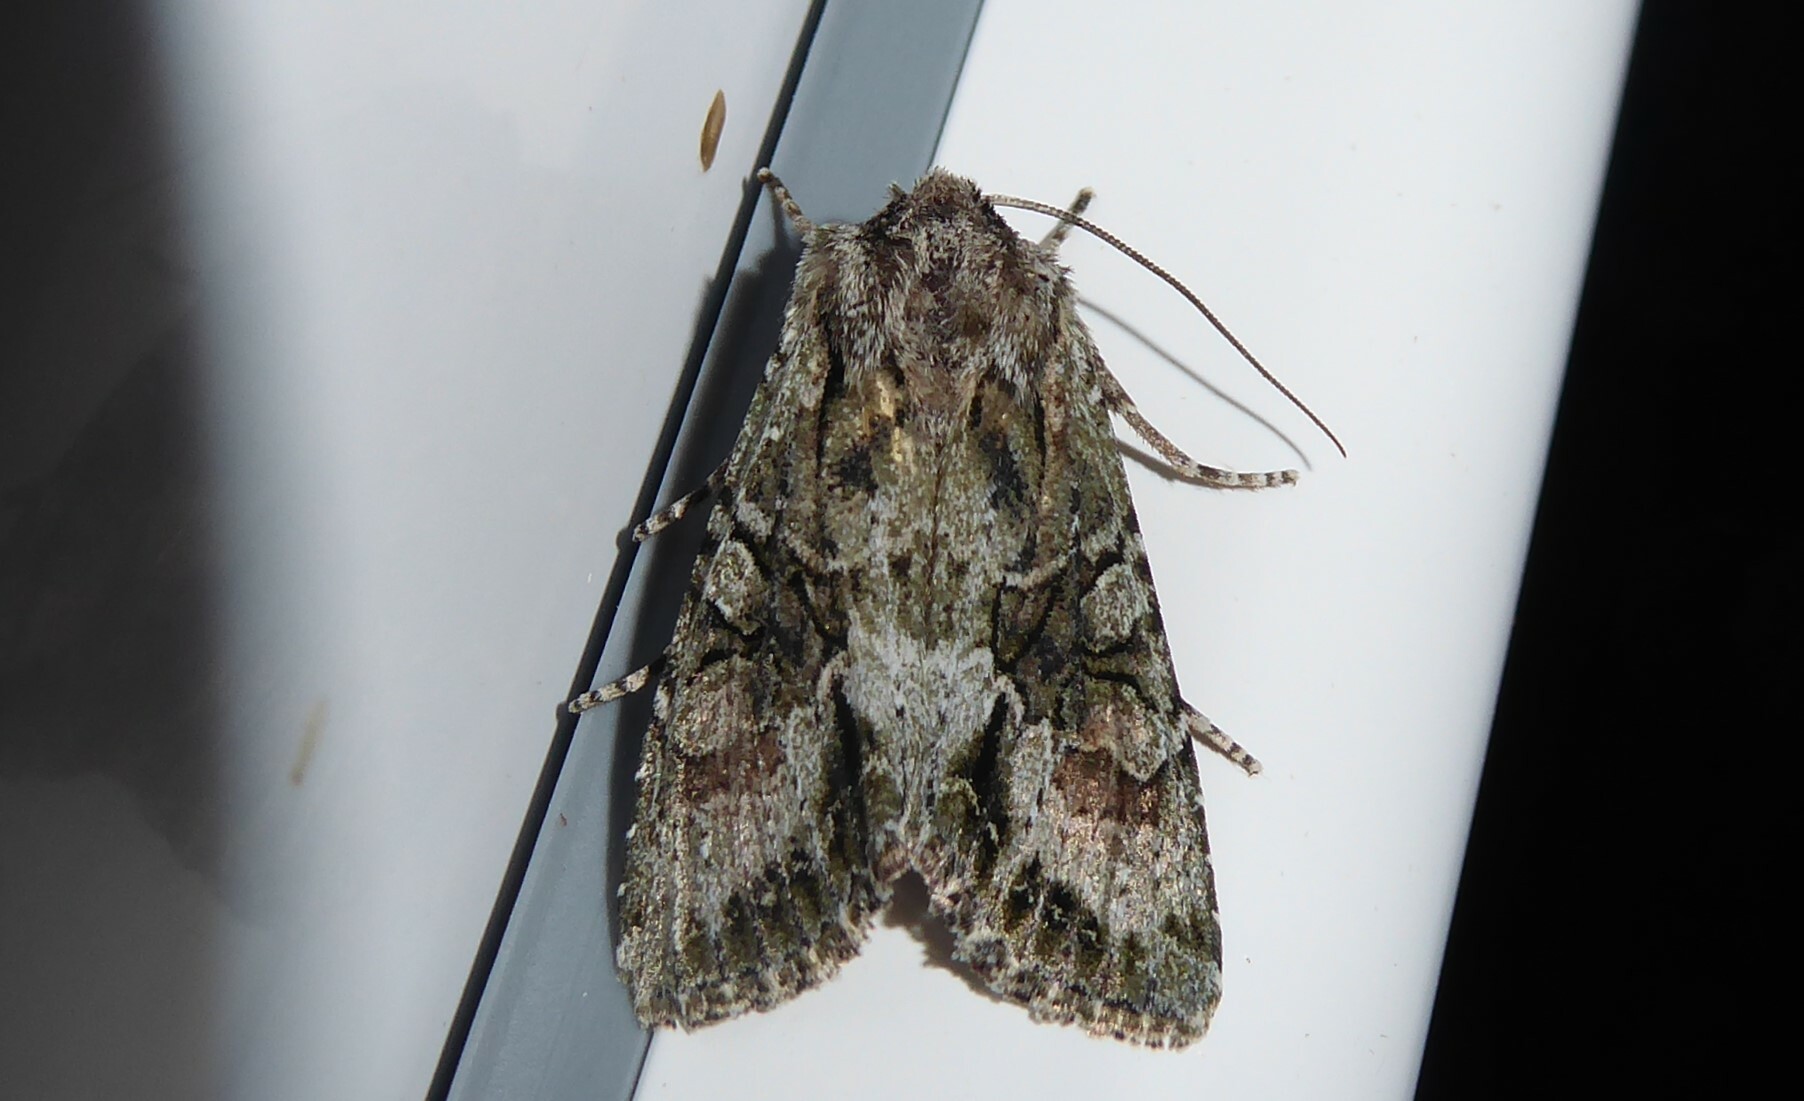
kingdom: Animalia
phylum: Arthropoda
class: Insecta
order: Lepidoptera
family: Noctuidae
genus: Ichneutica
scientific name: Ichneutica mutans
